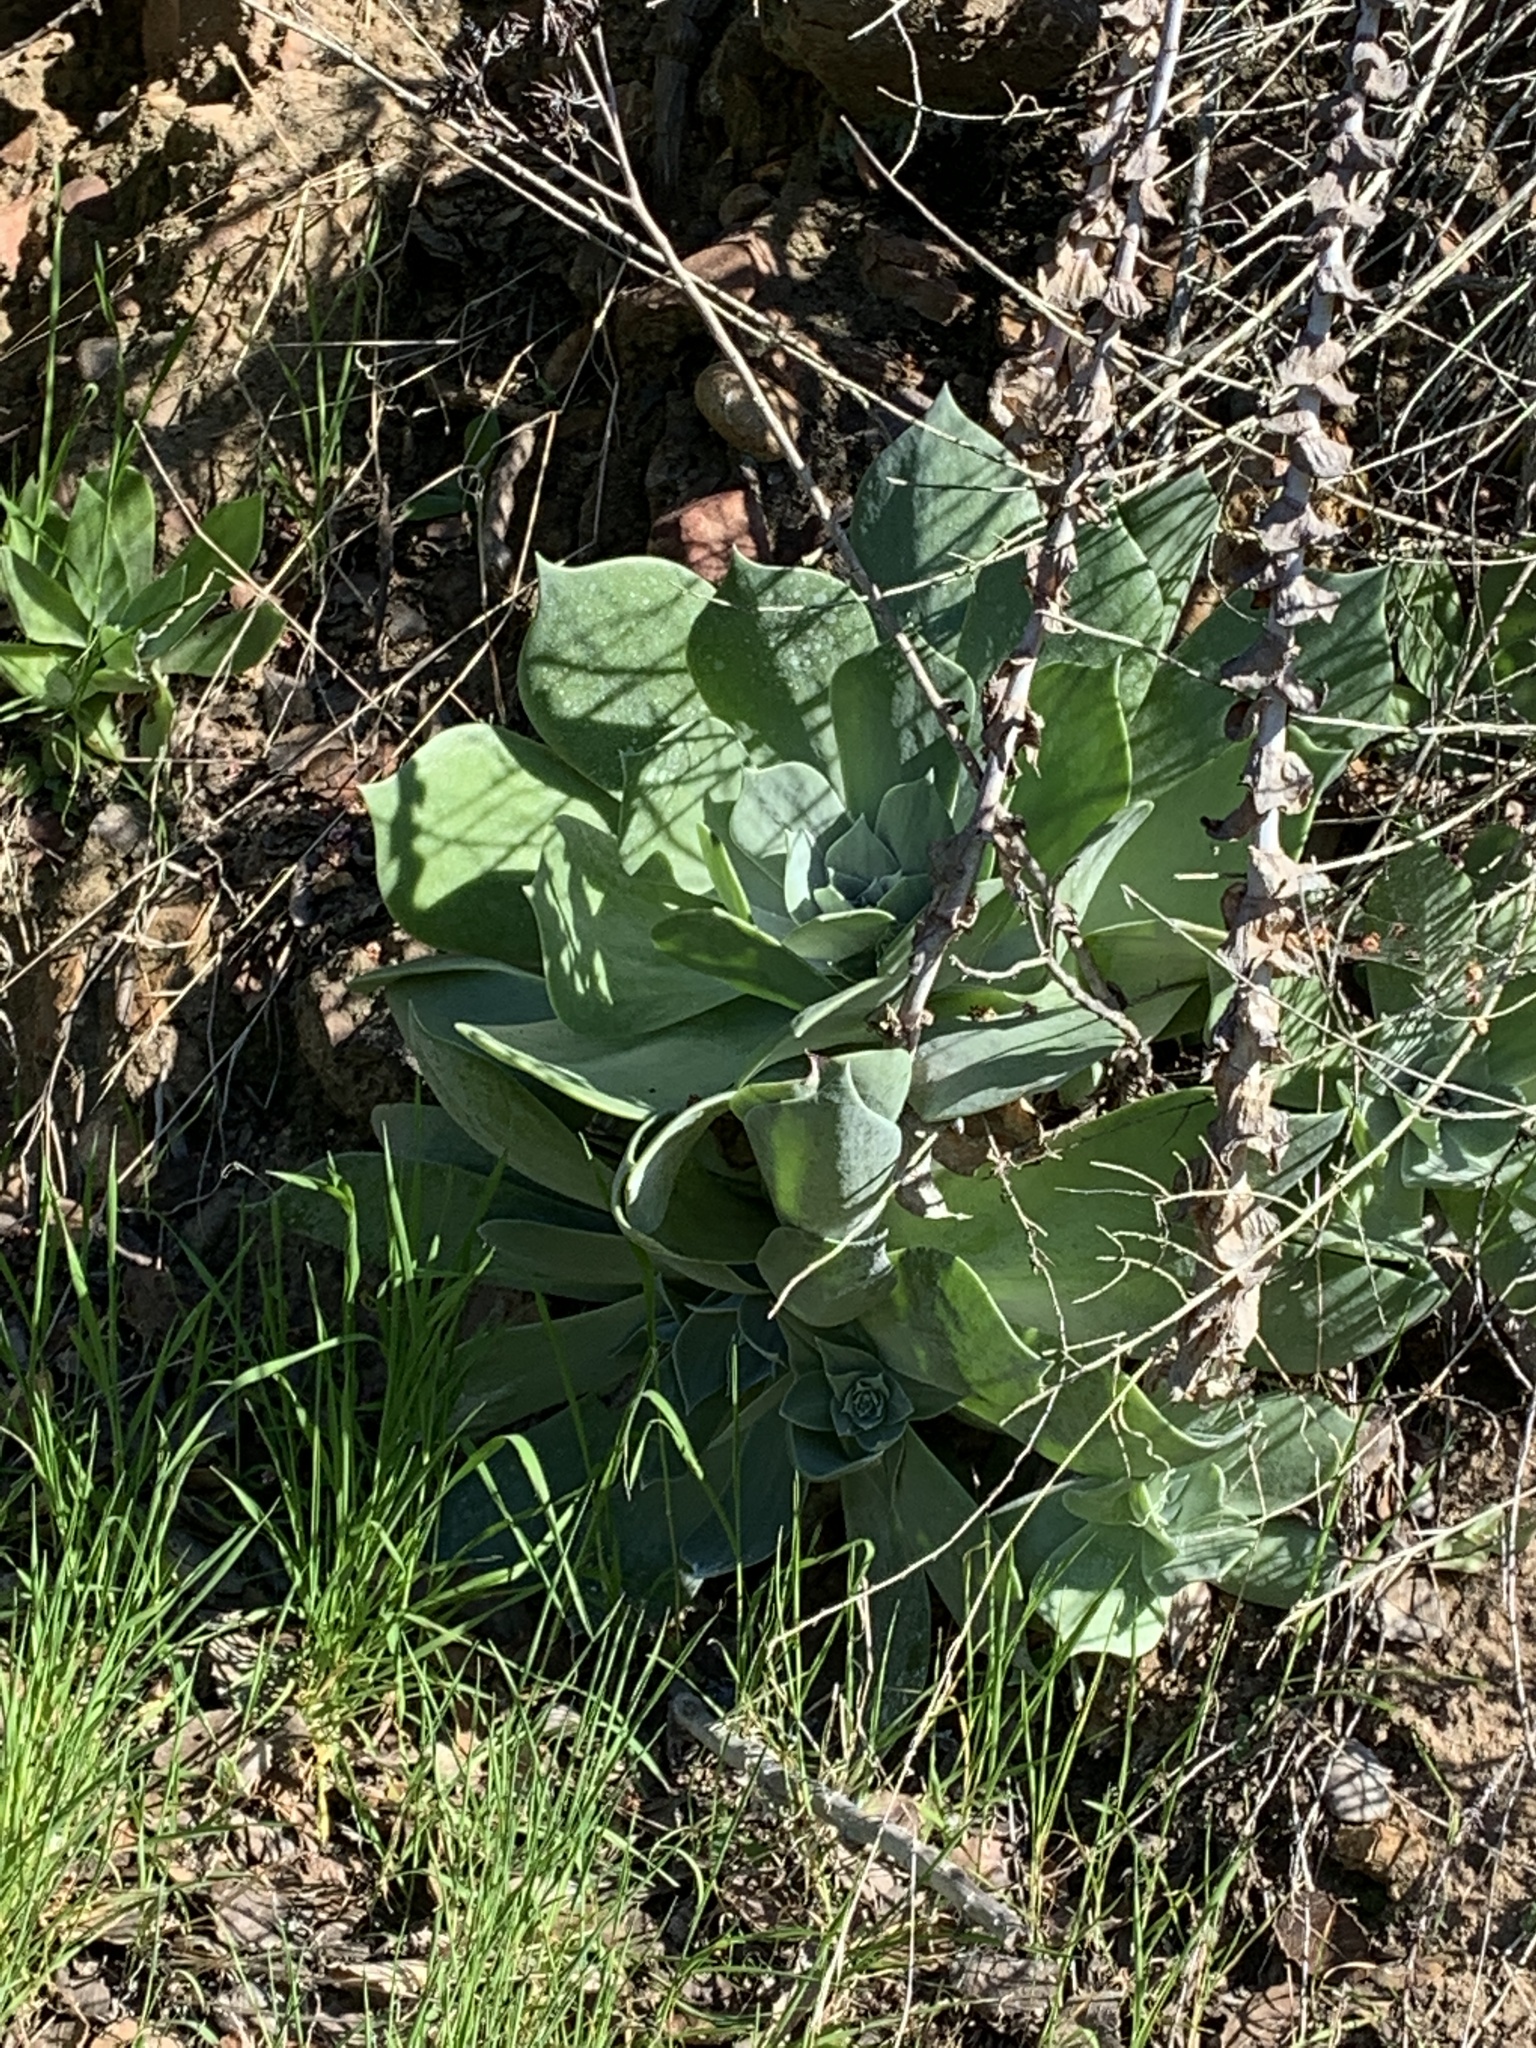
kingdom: Plantae
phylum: Tracheophyta
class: Magnoliopsida
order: Saxifragales
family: Crassulaceae
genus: Dudleya
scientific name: Dudleya pulverulenta
